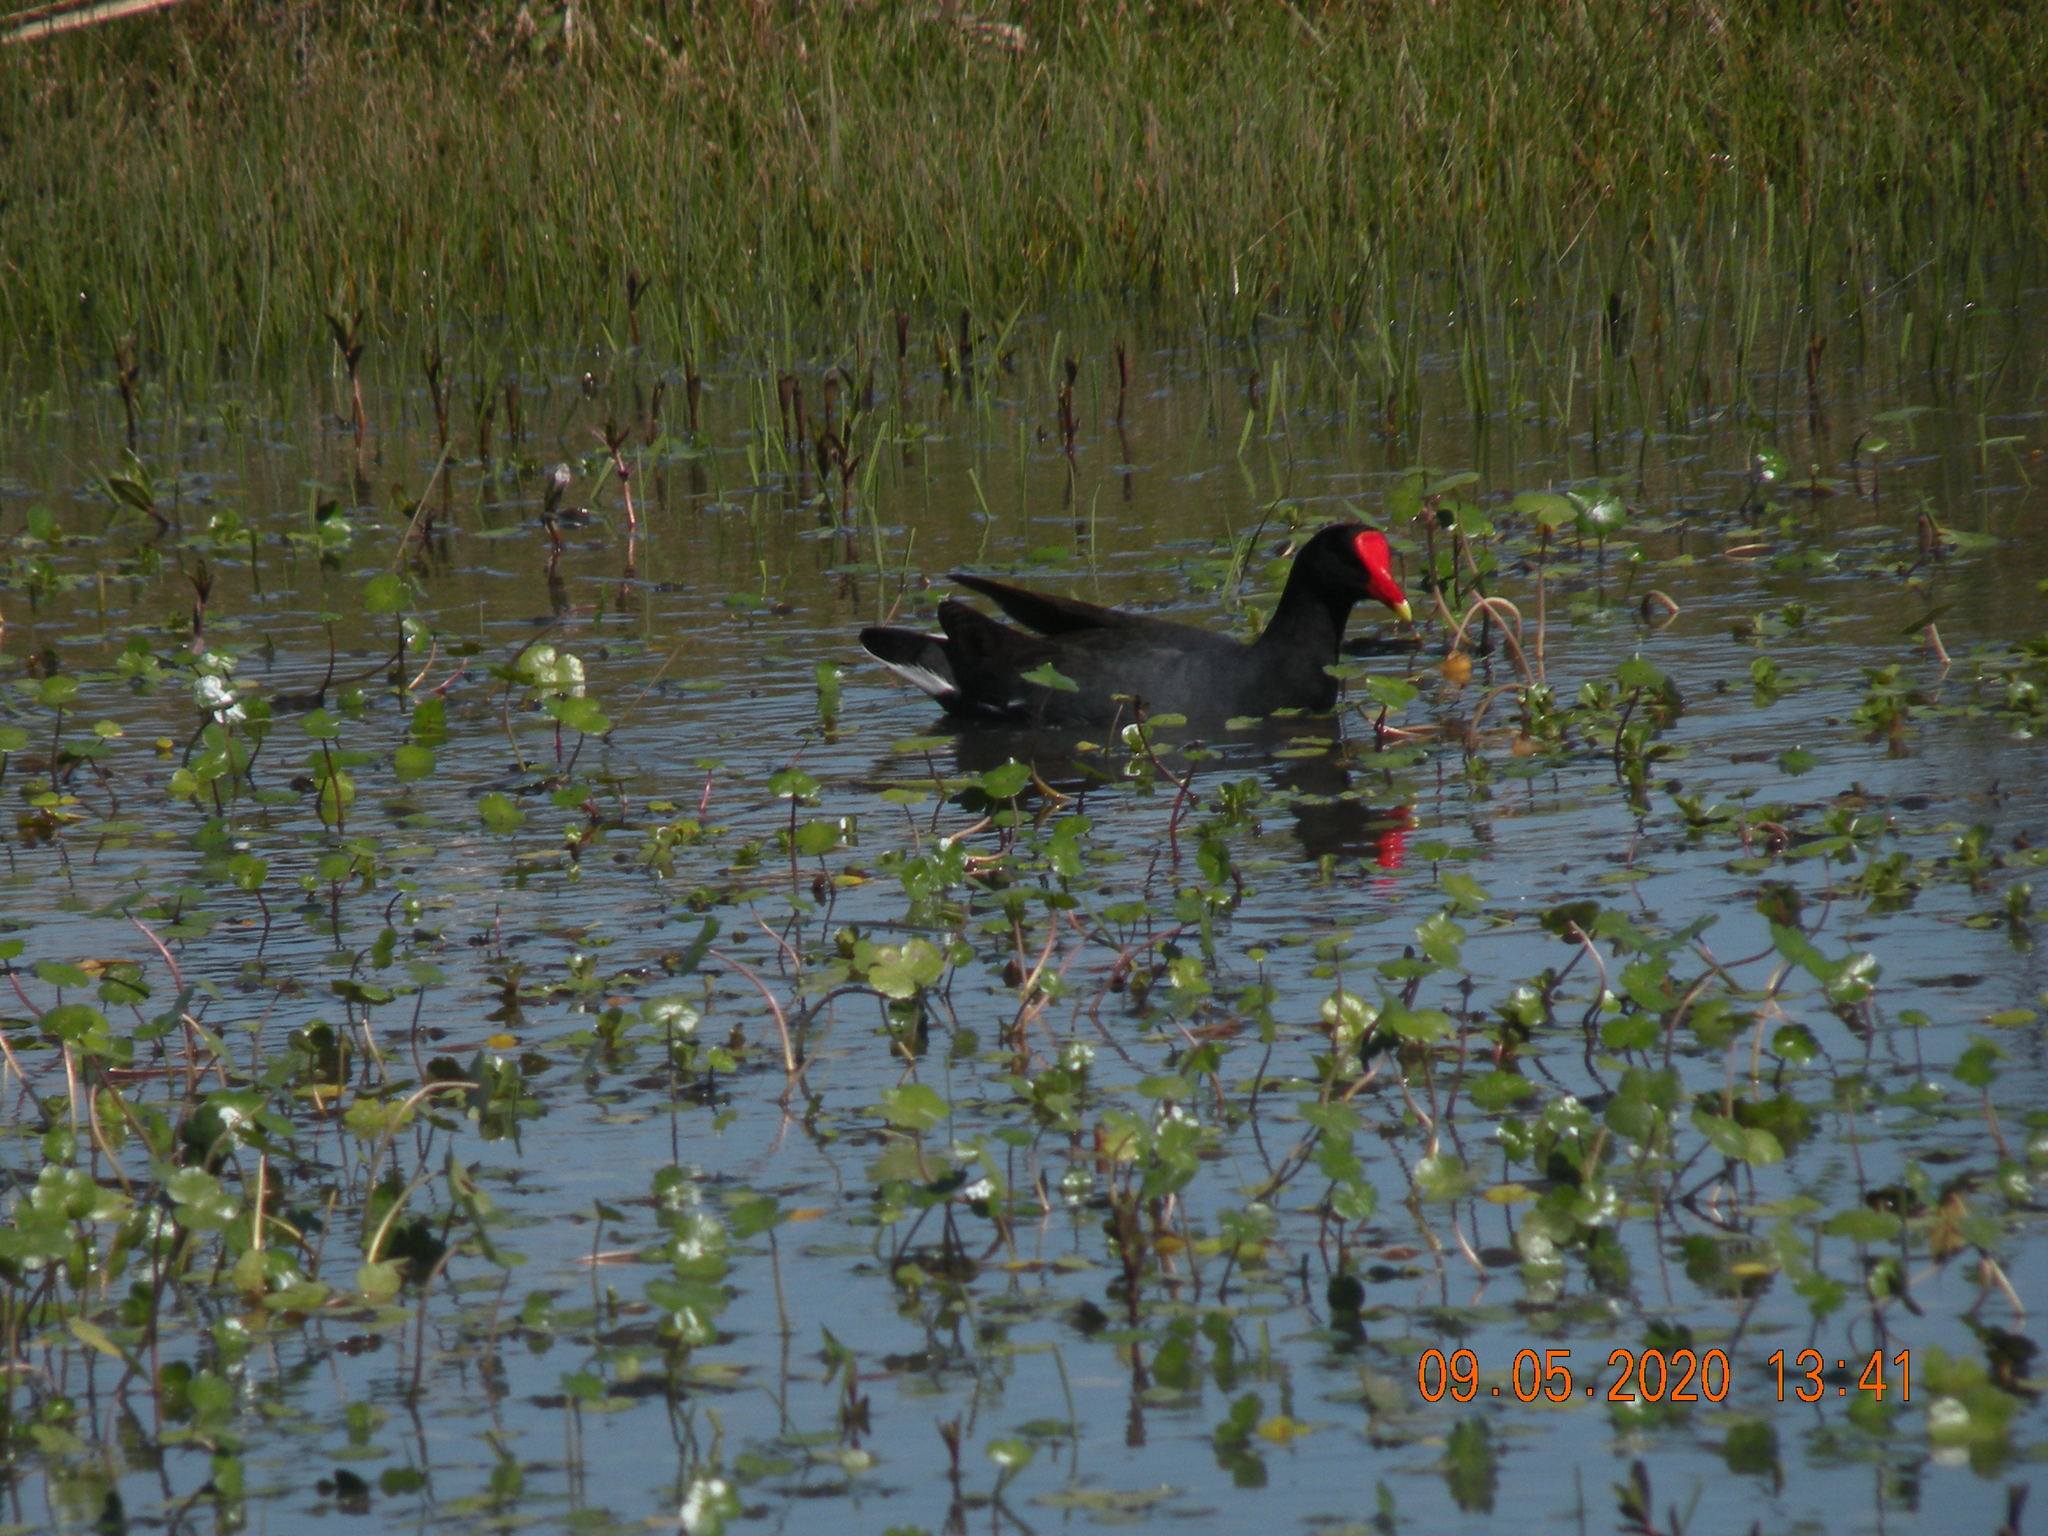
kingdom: Animalia
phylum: Chordata
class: Aves
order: Gruiformes
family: Rallidae
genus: Gallinula
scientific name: Gallinula chloropus
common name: Common moorhen
